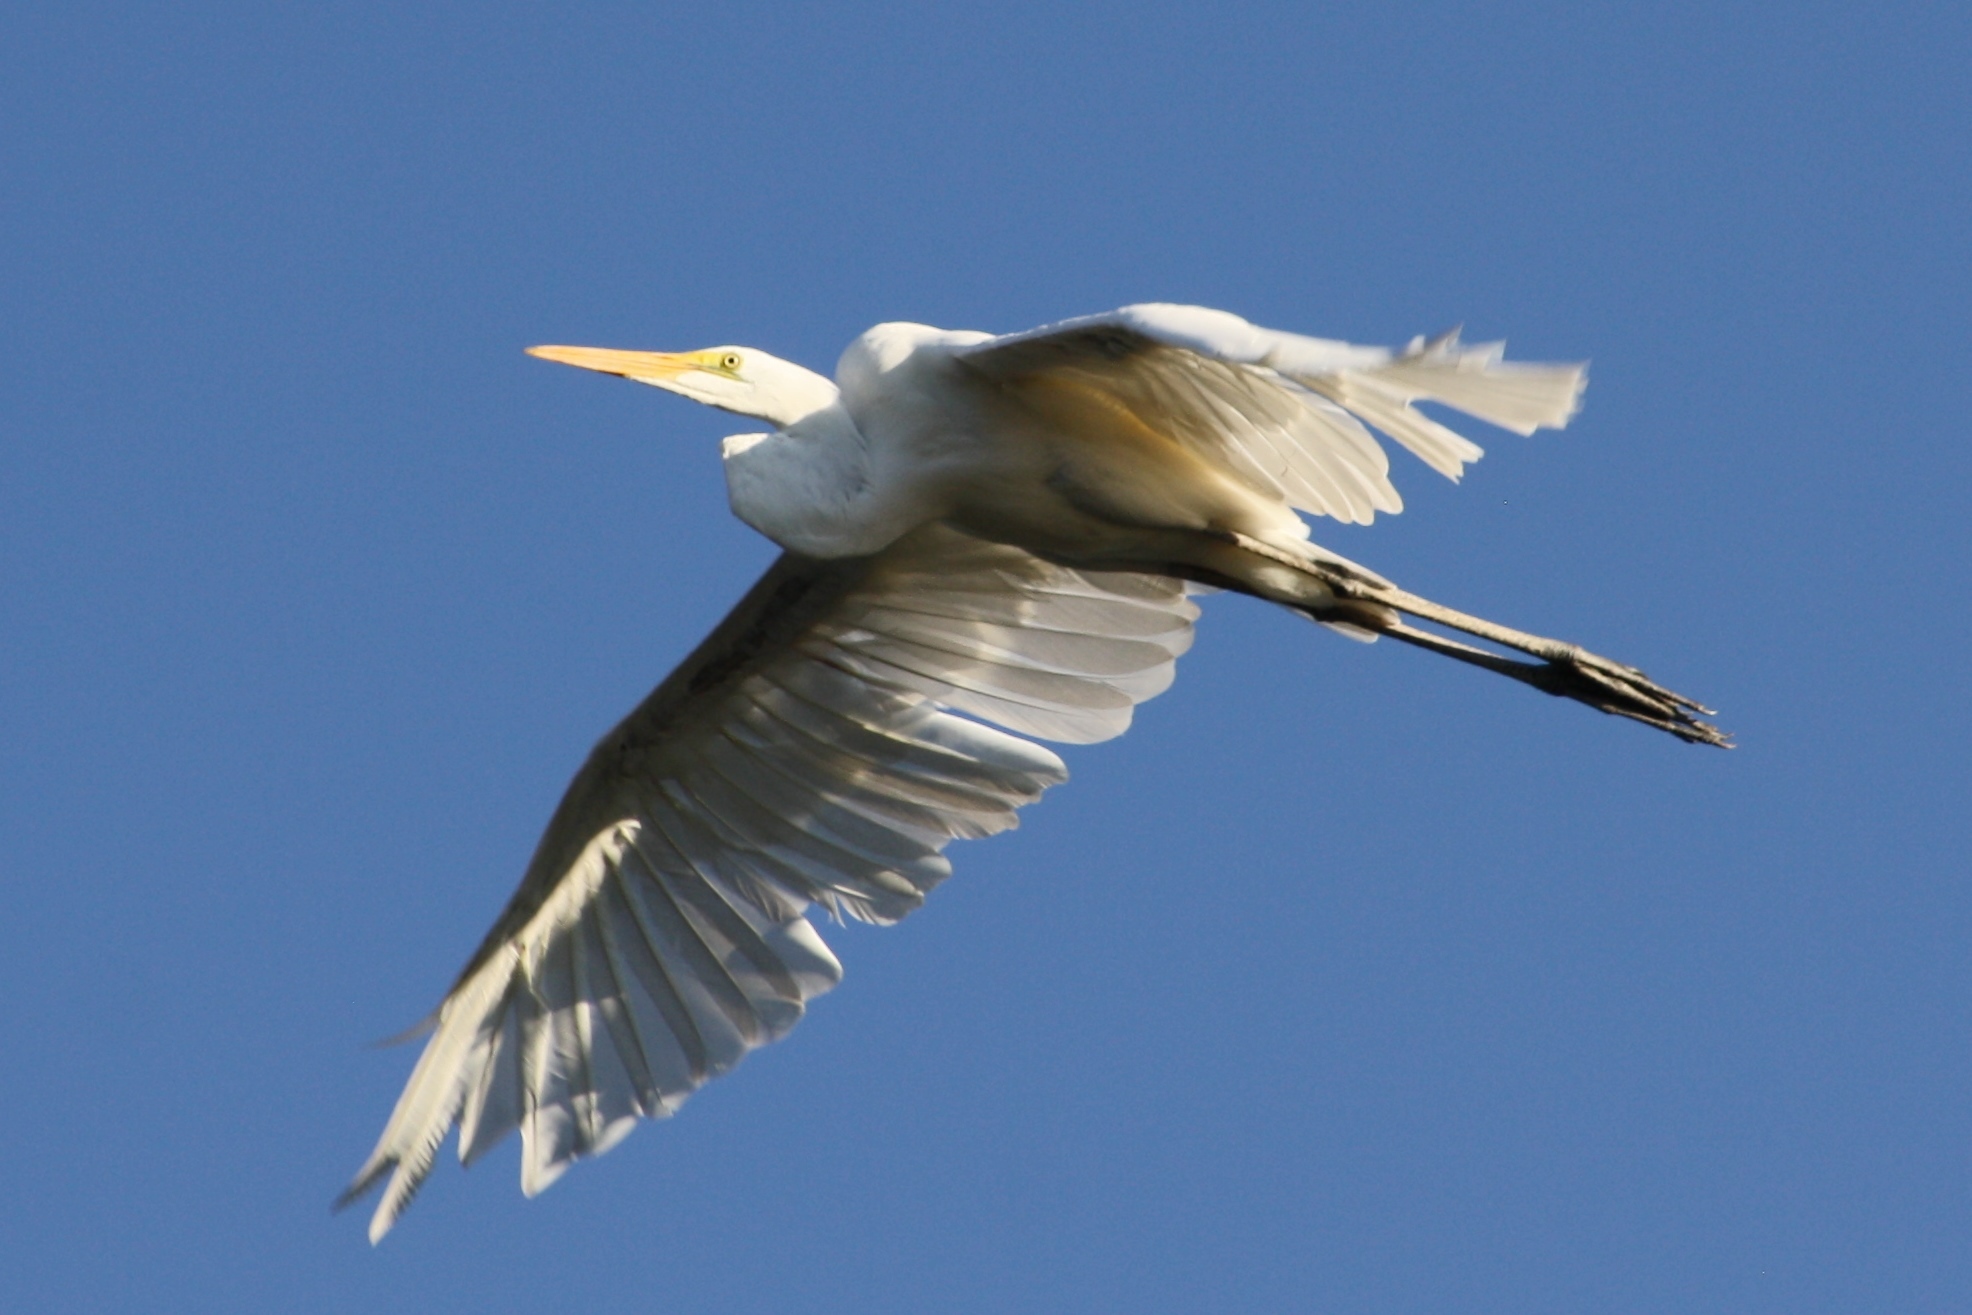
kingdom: Animalia
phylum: Chordata
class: Aves
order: Pelecaniformes
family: Ardeidae
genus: Ardea
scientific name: Ardea alba
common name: Great egret
